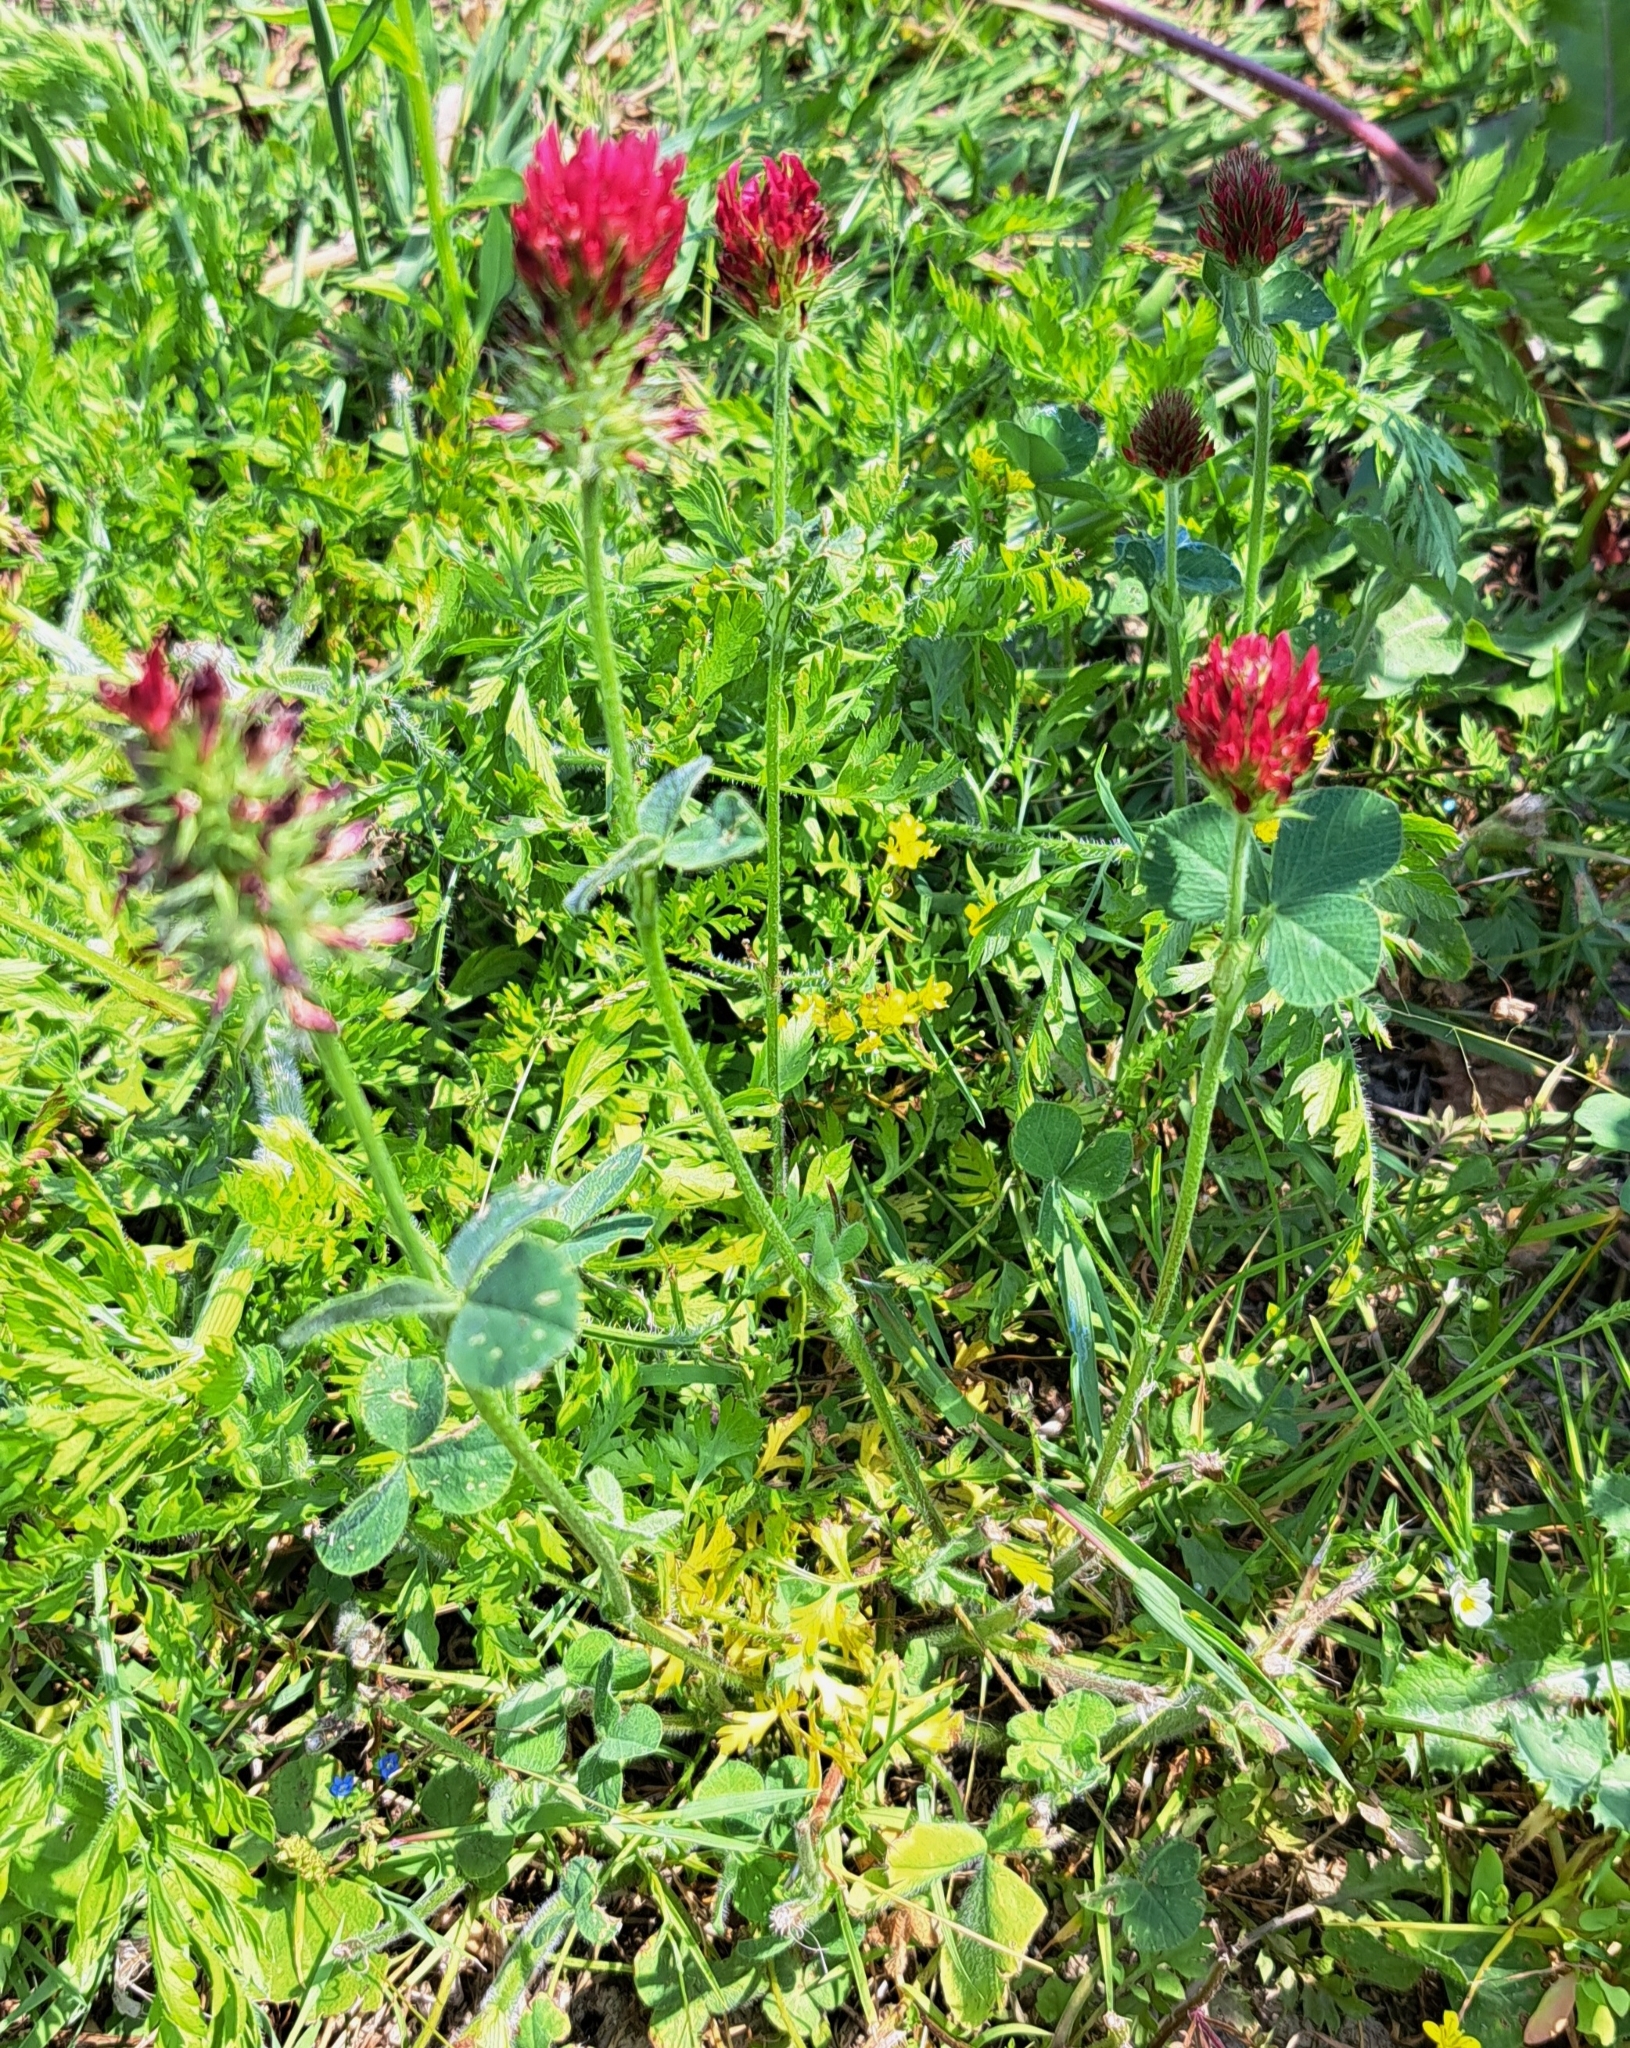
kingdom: Plantae
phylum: Tracheophyta
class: Magnoliopsida
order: Fabales
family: Fabaceae
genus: Trifolium
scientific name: Trifolium incarnatum
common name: Crimson clover
